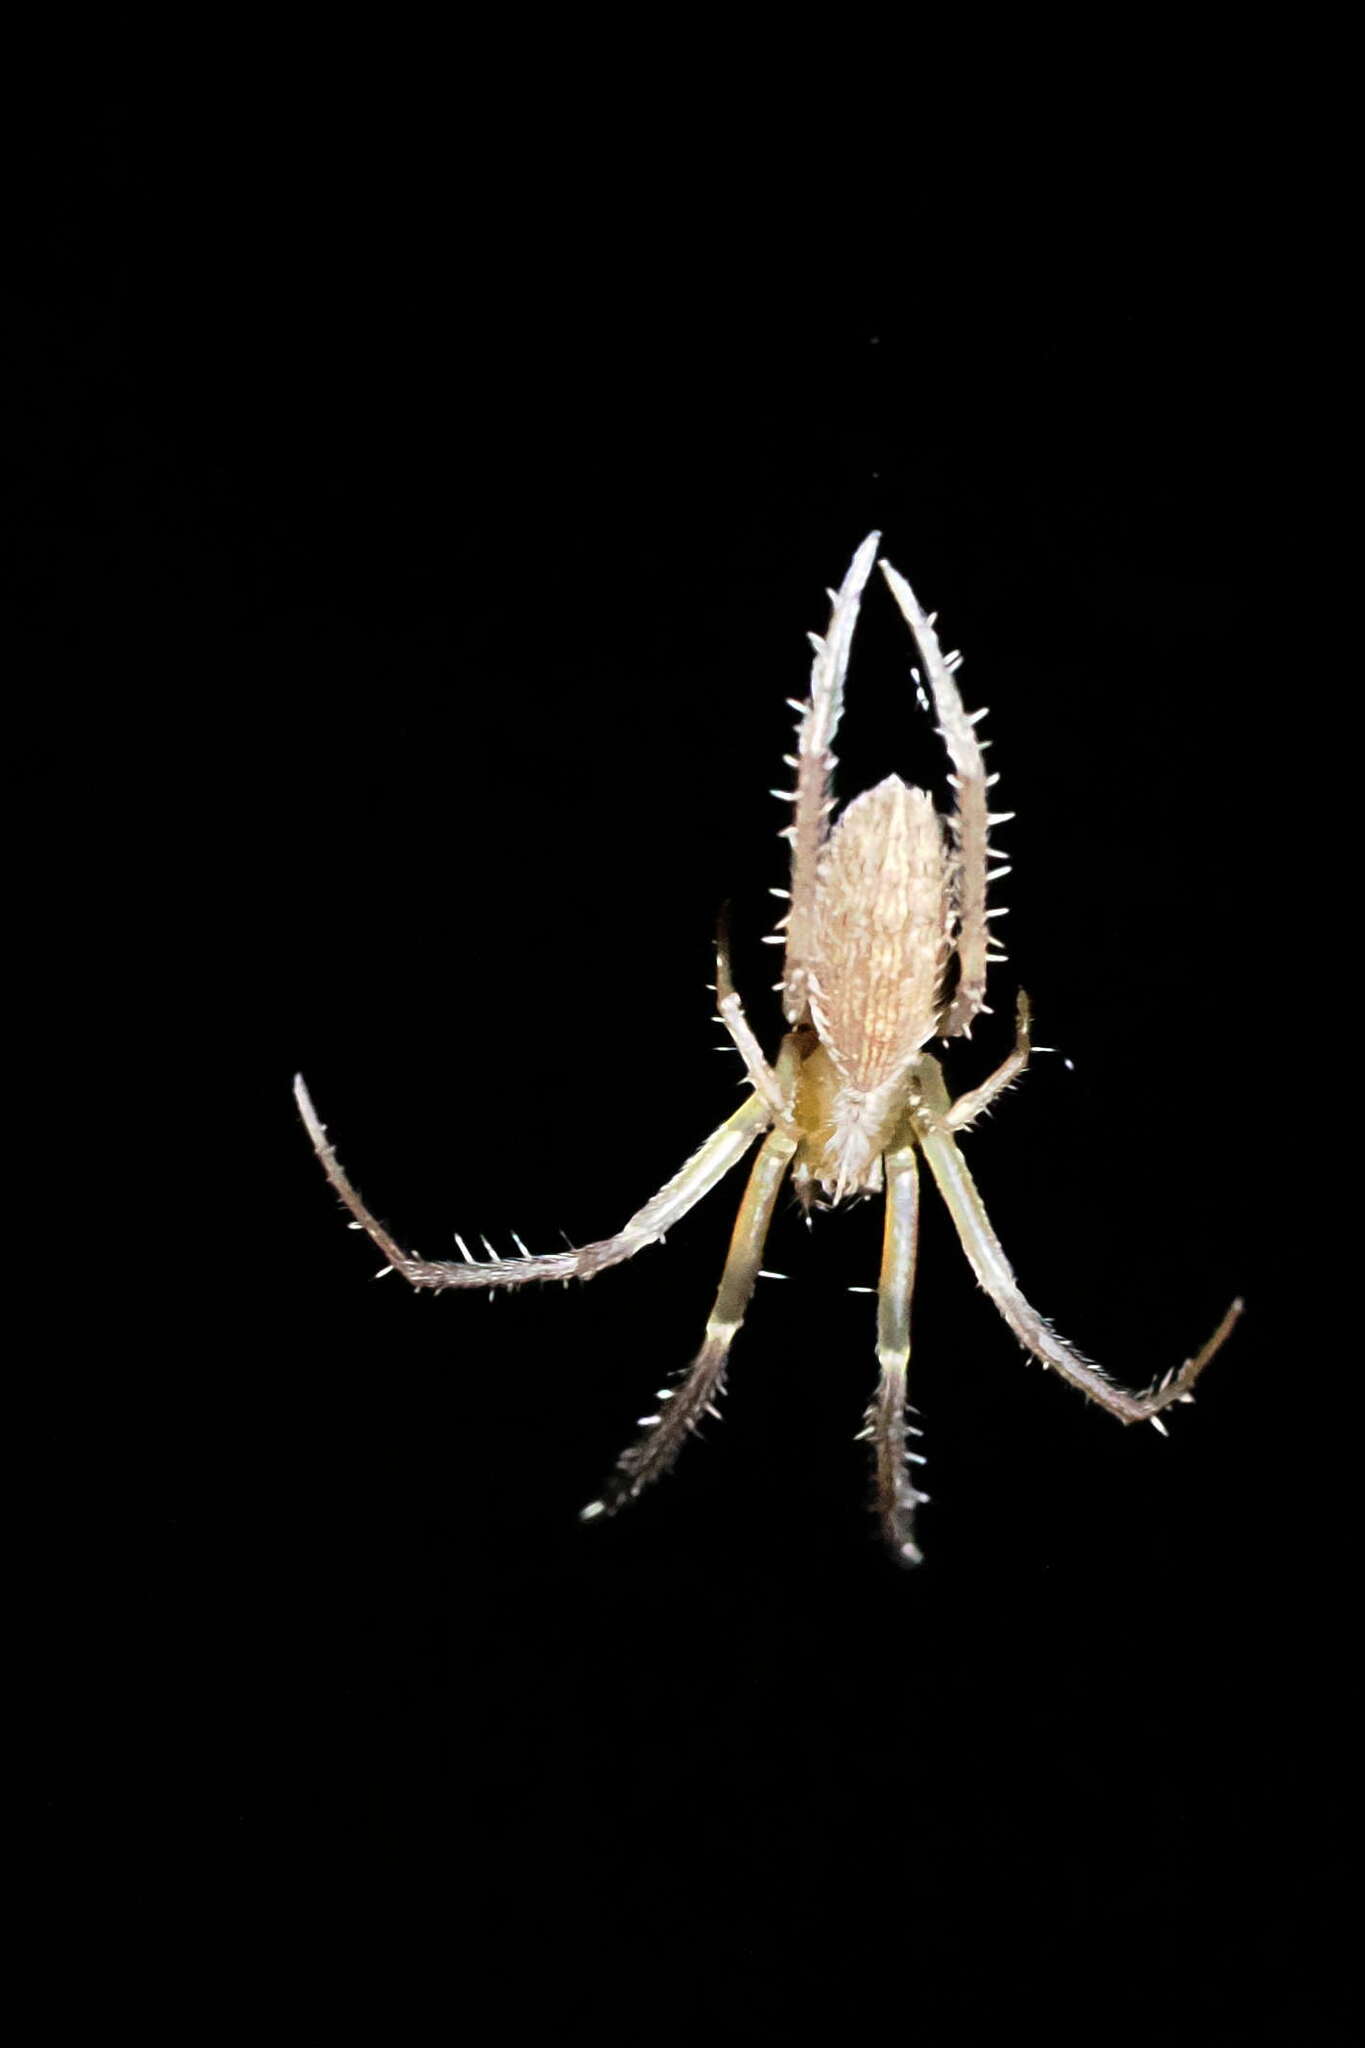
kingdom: Animalia
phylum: Arthropoda
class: Arachnida
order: Araneae
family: Araneidae
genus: Larinia
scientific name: Larinia directa
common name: Orb weavers
